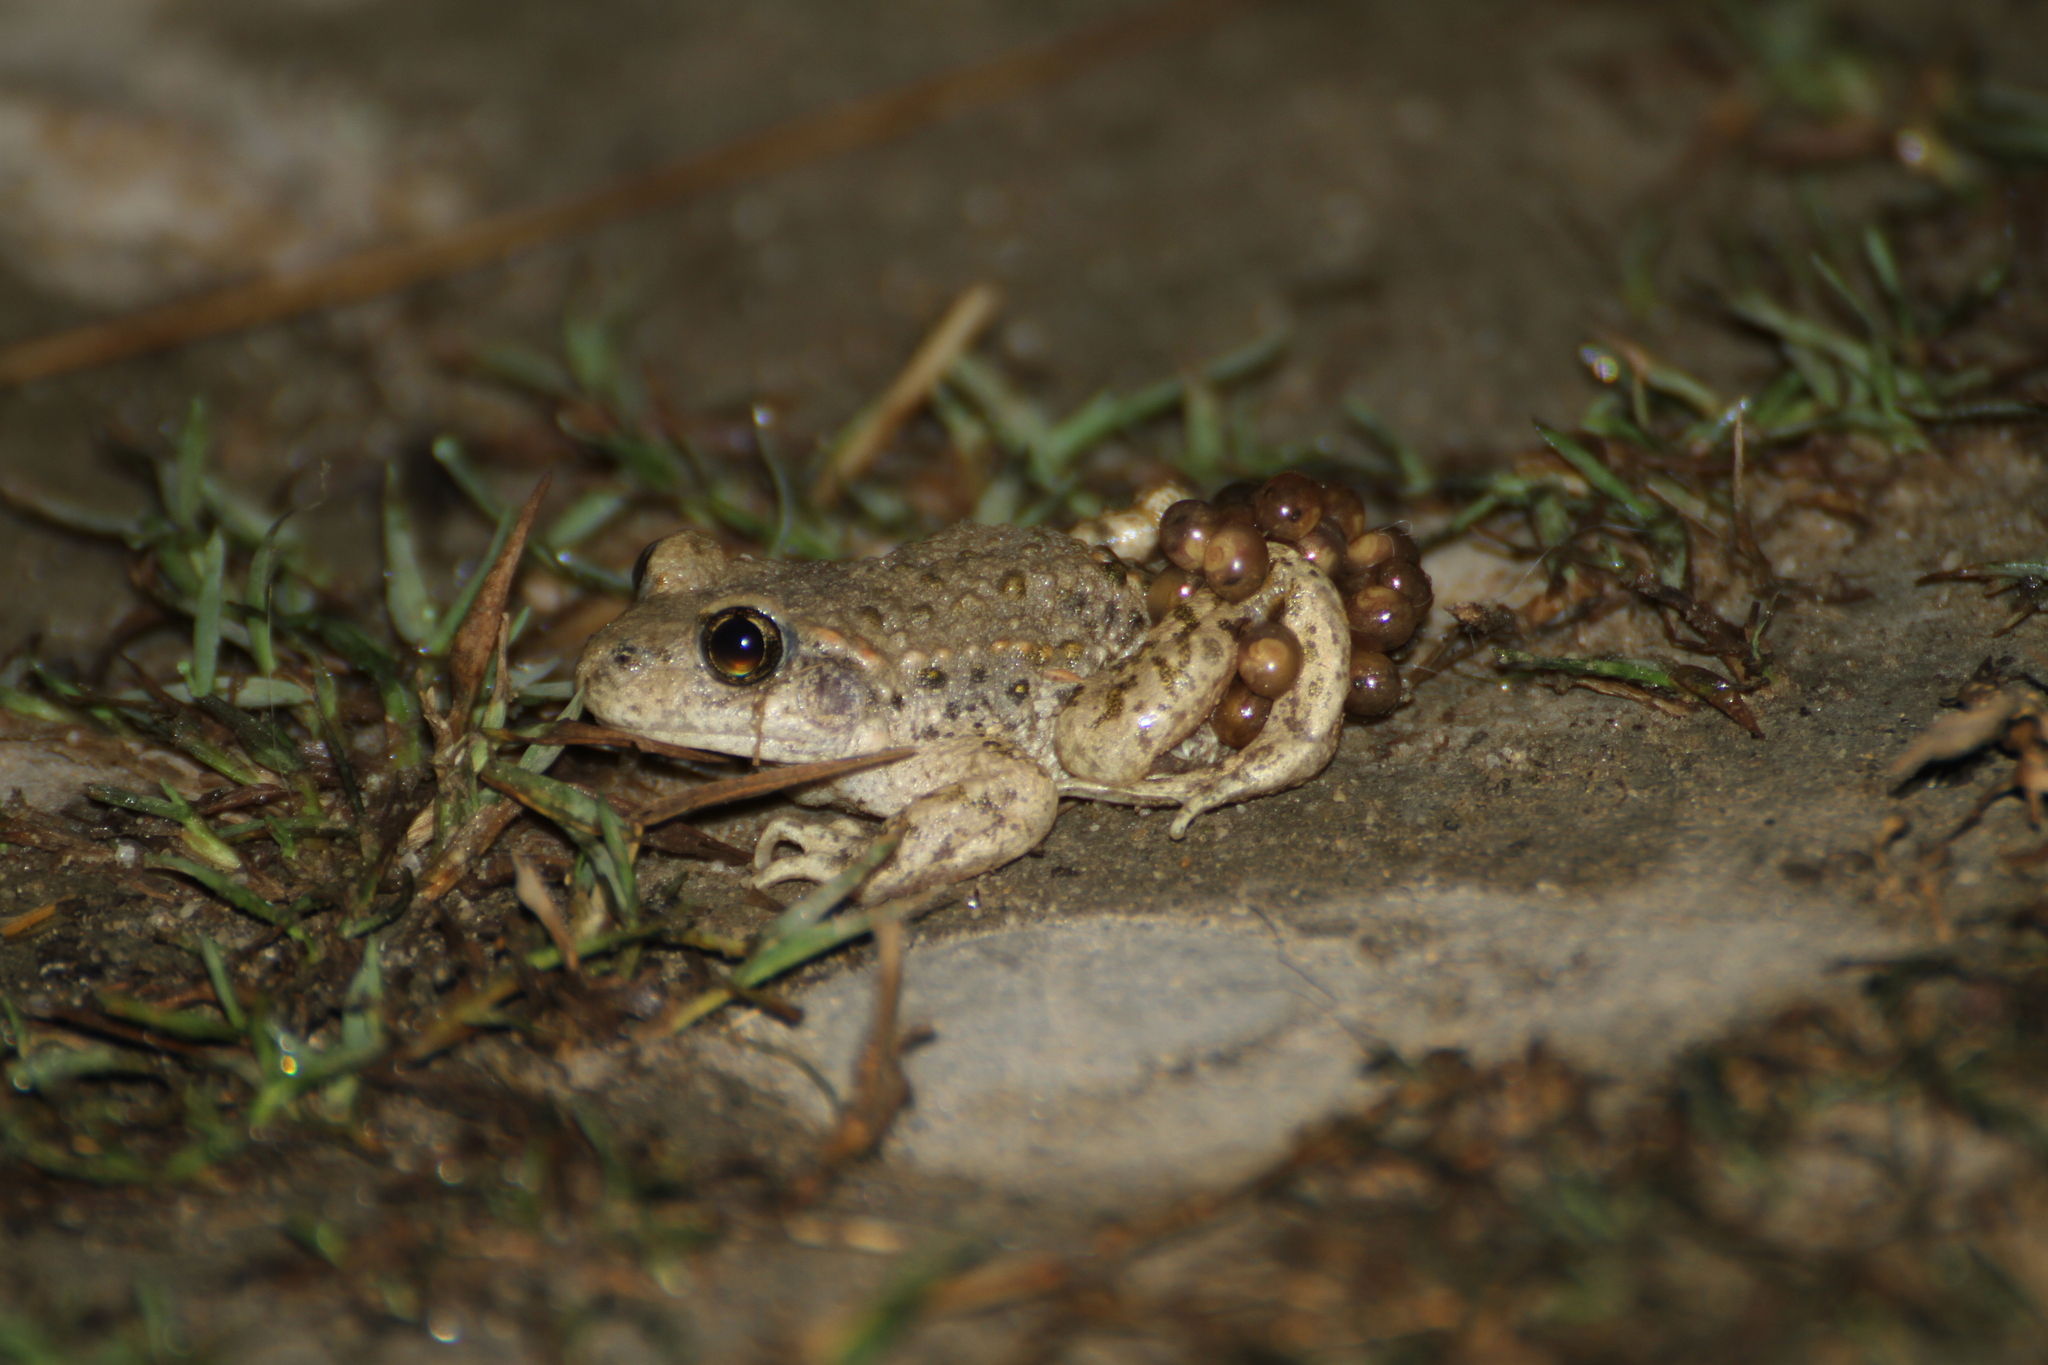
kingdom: Animalia
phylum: Chordata
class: Amphibia
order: Anura
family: Alytidae
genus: Alytes
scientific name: Alytes obstetricans
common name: Midwife toad
